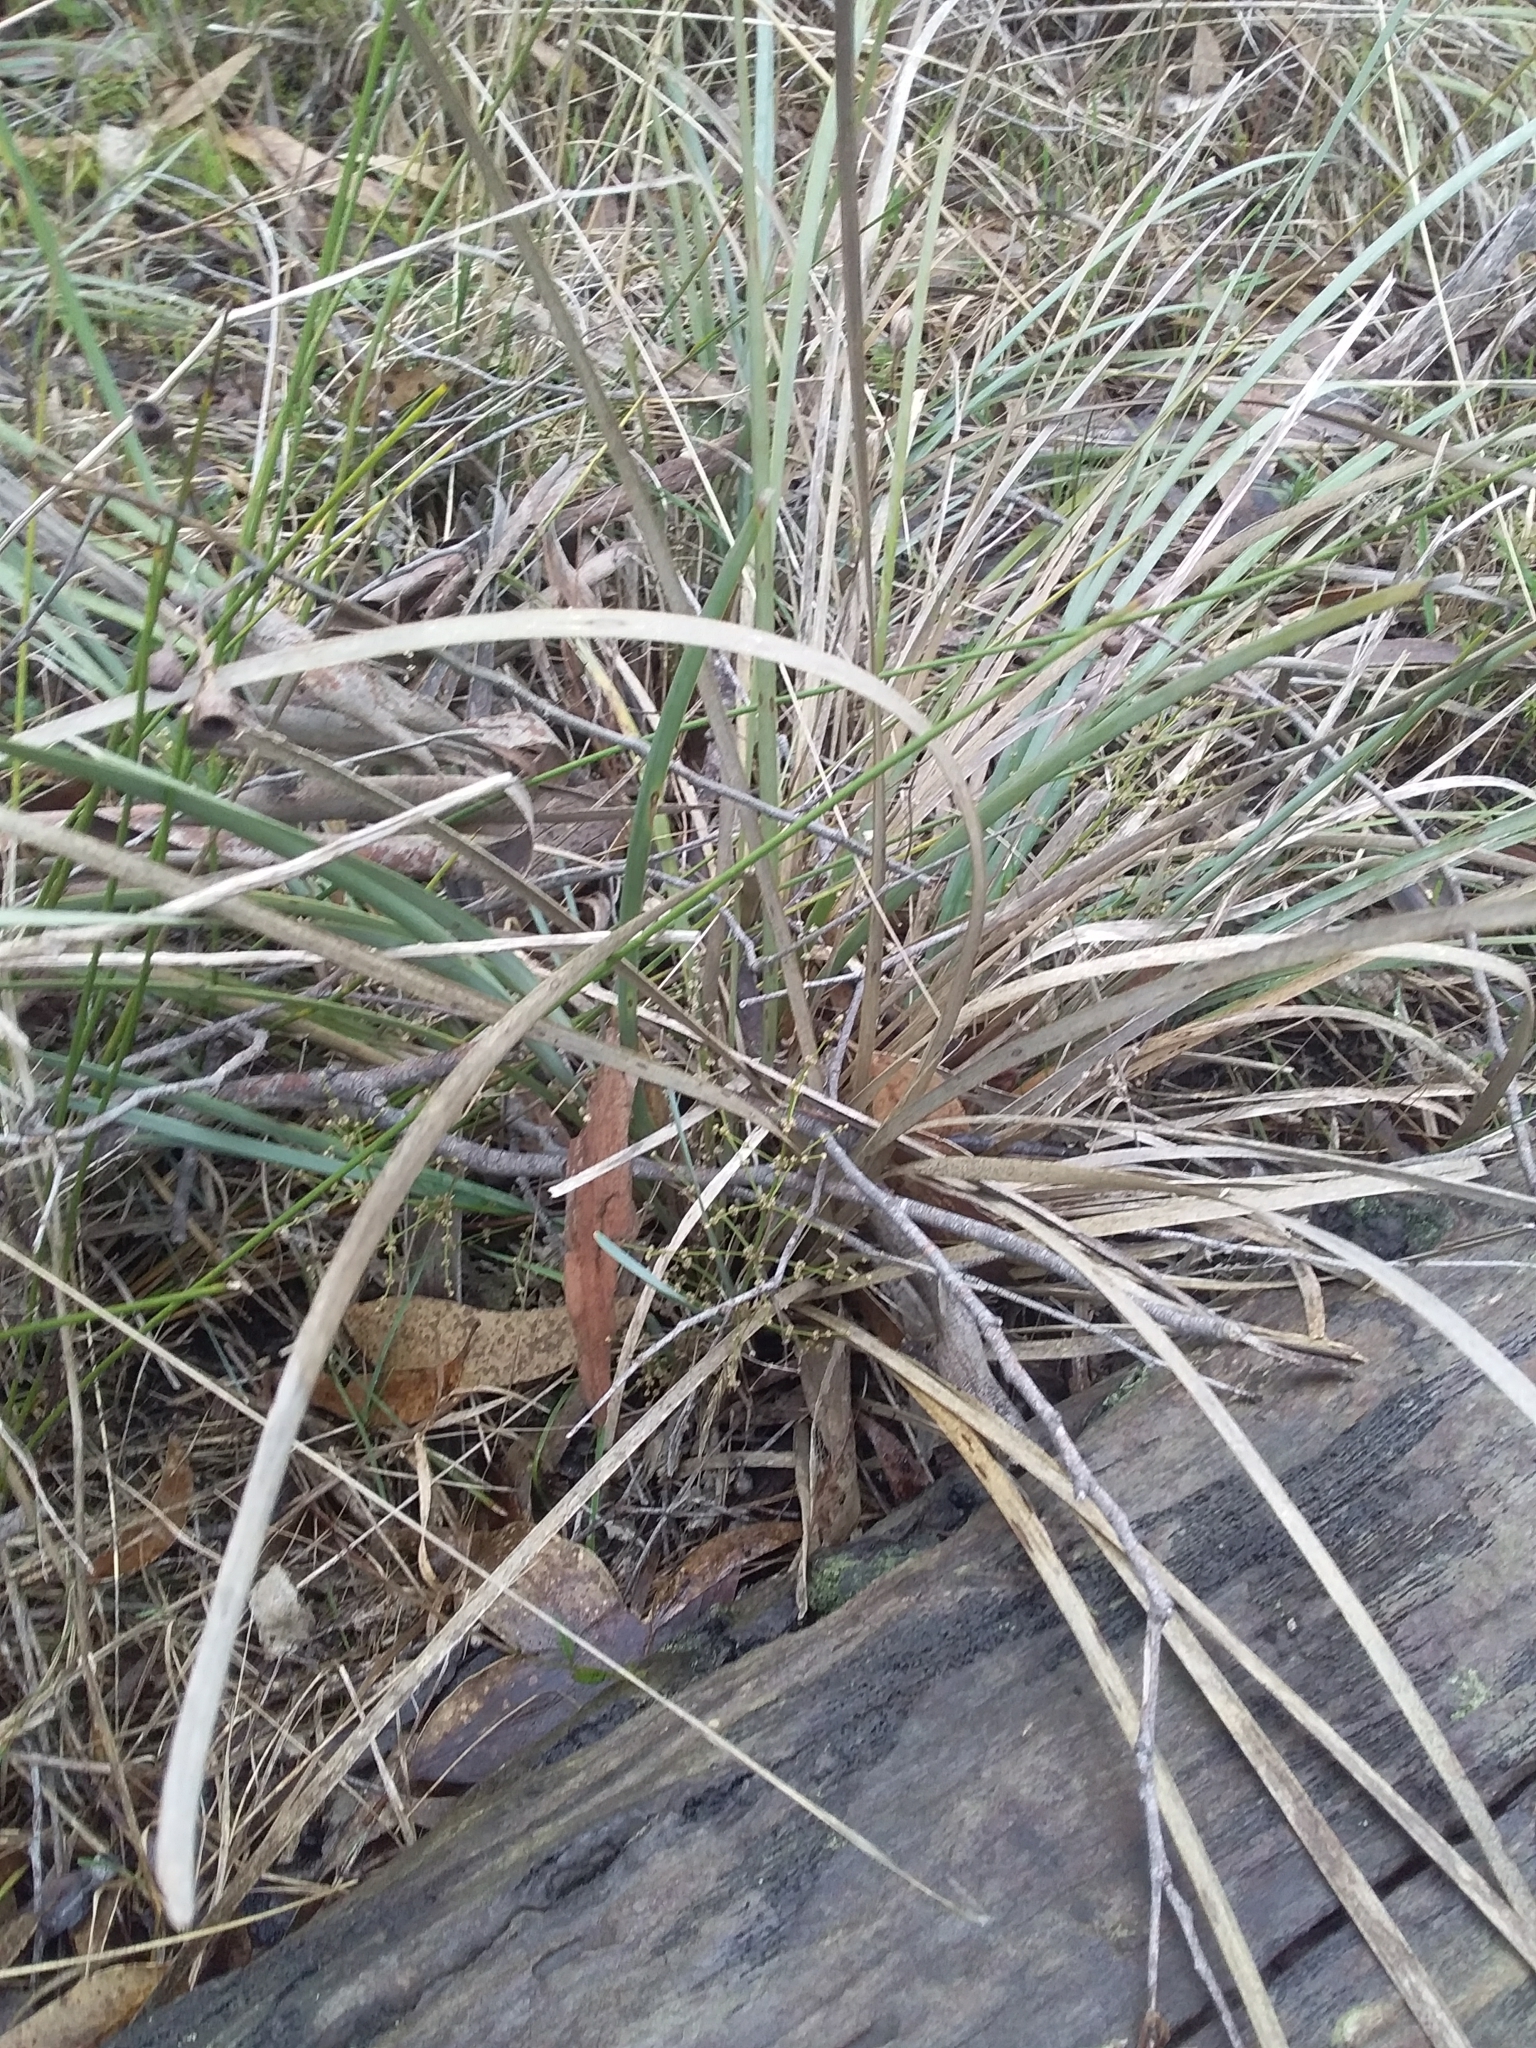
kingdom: Plantae
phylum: Tracheophyta
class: Liliopsida
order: Asparagales
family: Asparagaceae
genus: Lomandra
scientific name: Lomandra multiflora
